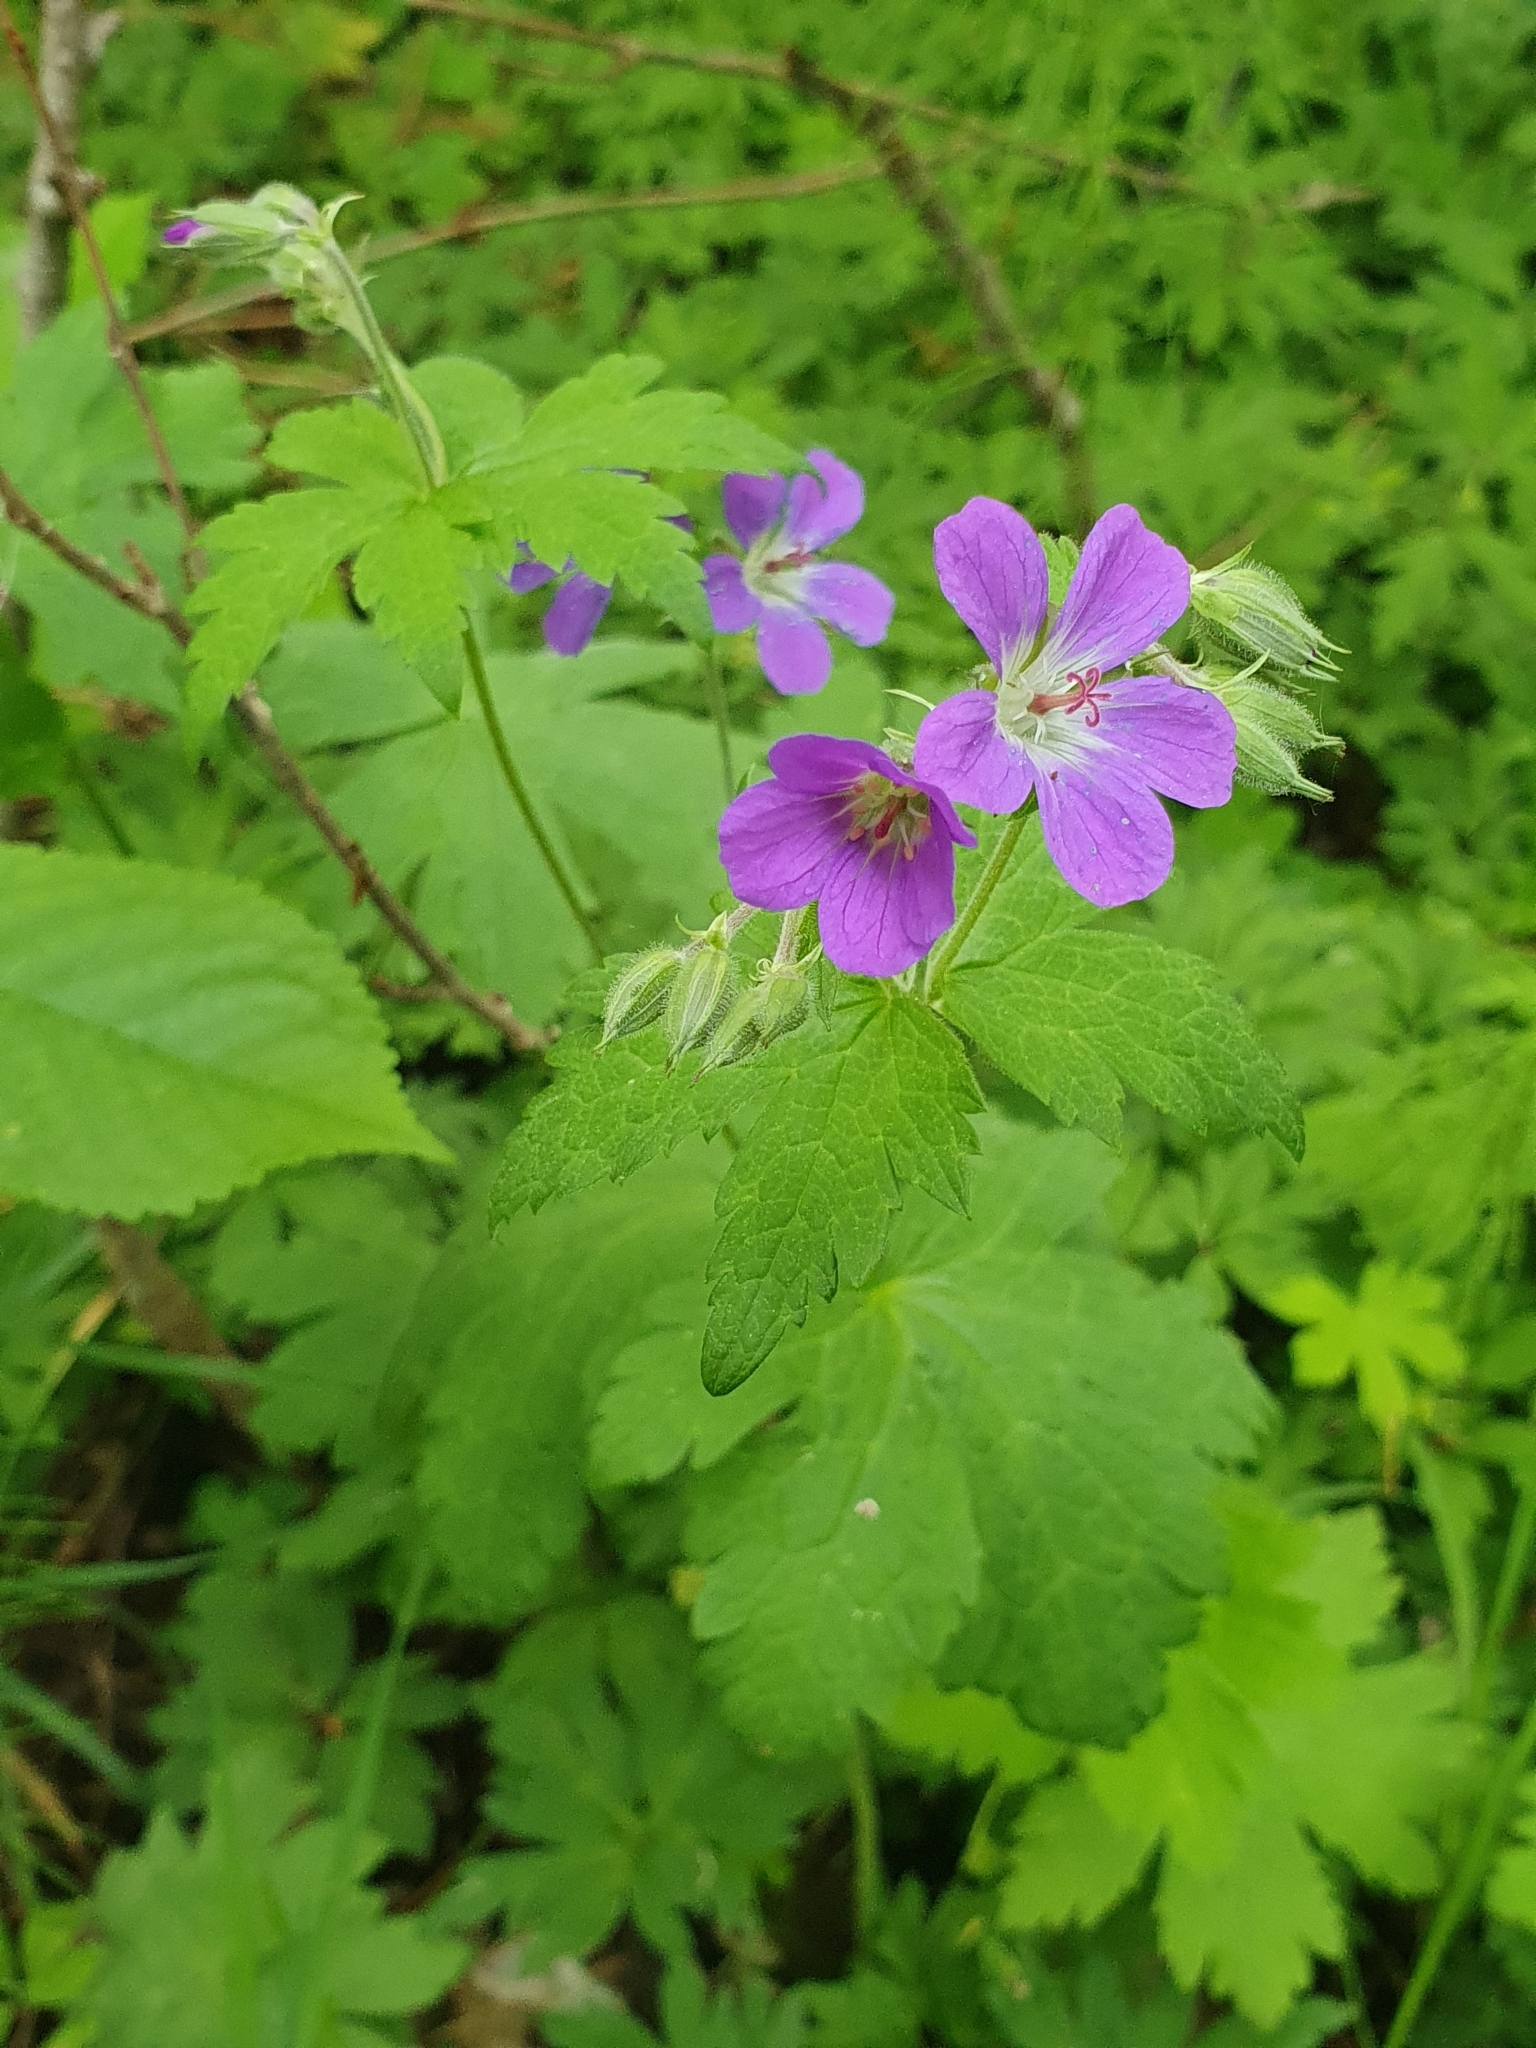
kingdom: Plantae
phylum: Tracheophyta
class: Magnoliopsida
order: Geraniales
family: Geraniaceae
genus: Geranium
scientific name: Geranium sylvaticum
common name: Wood crane's-bill
